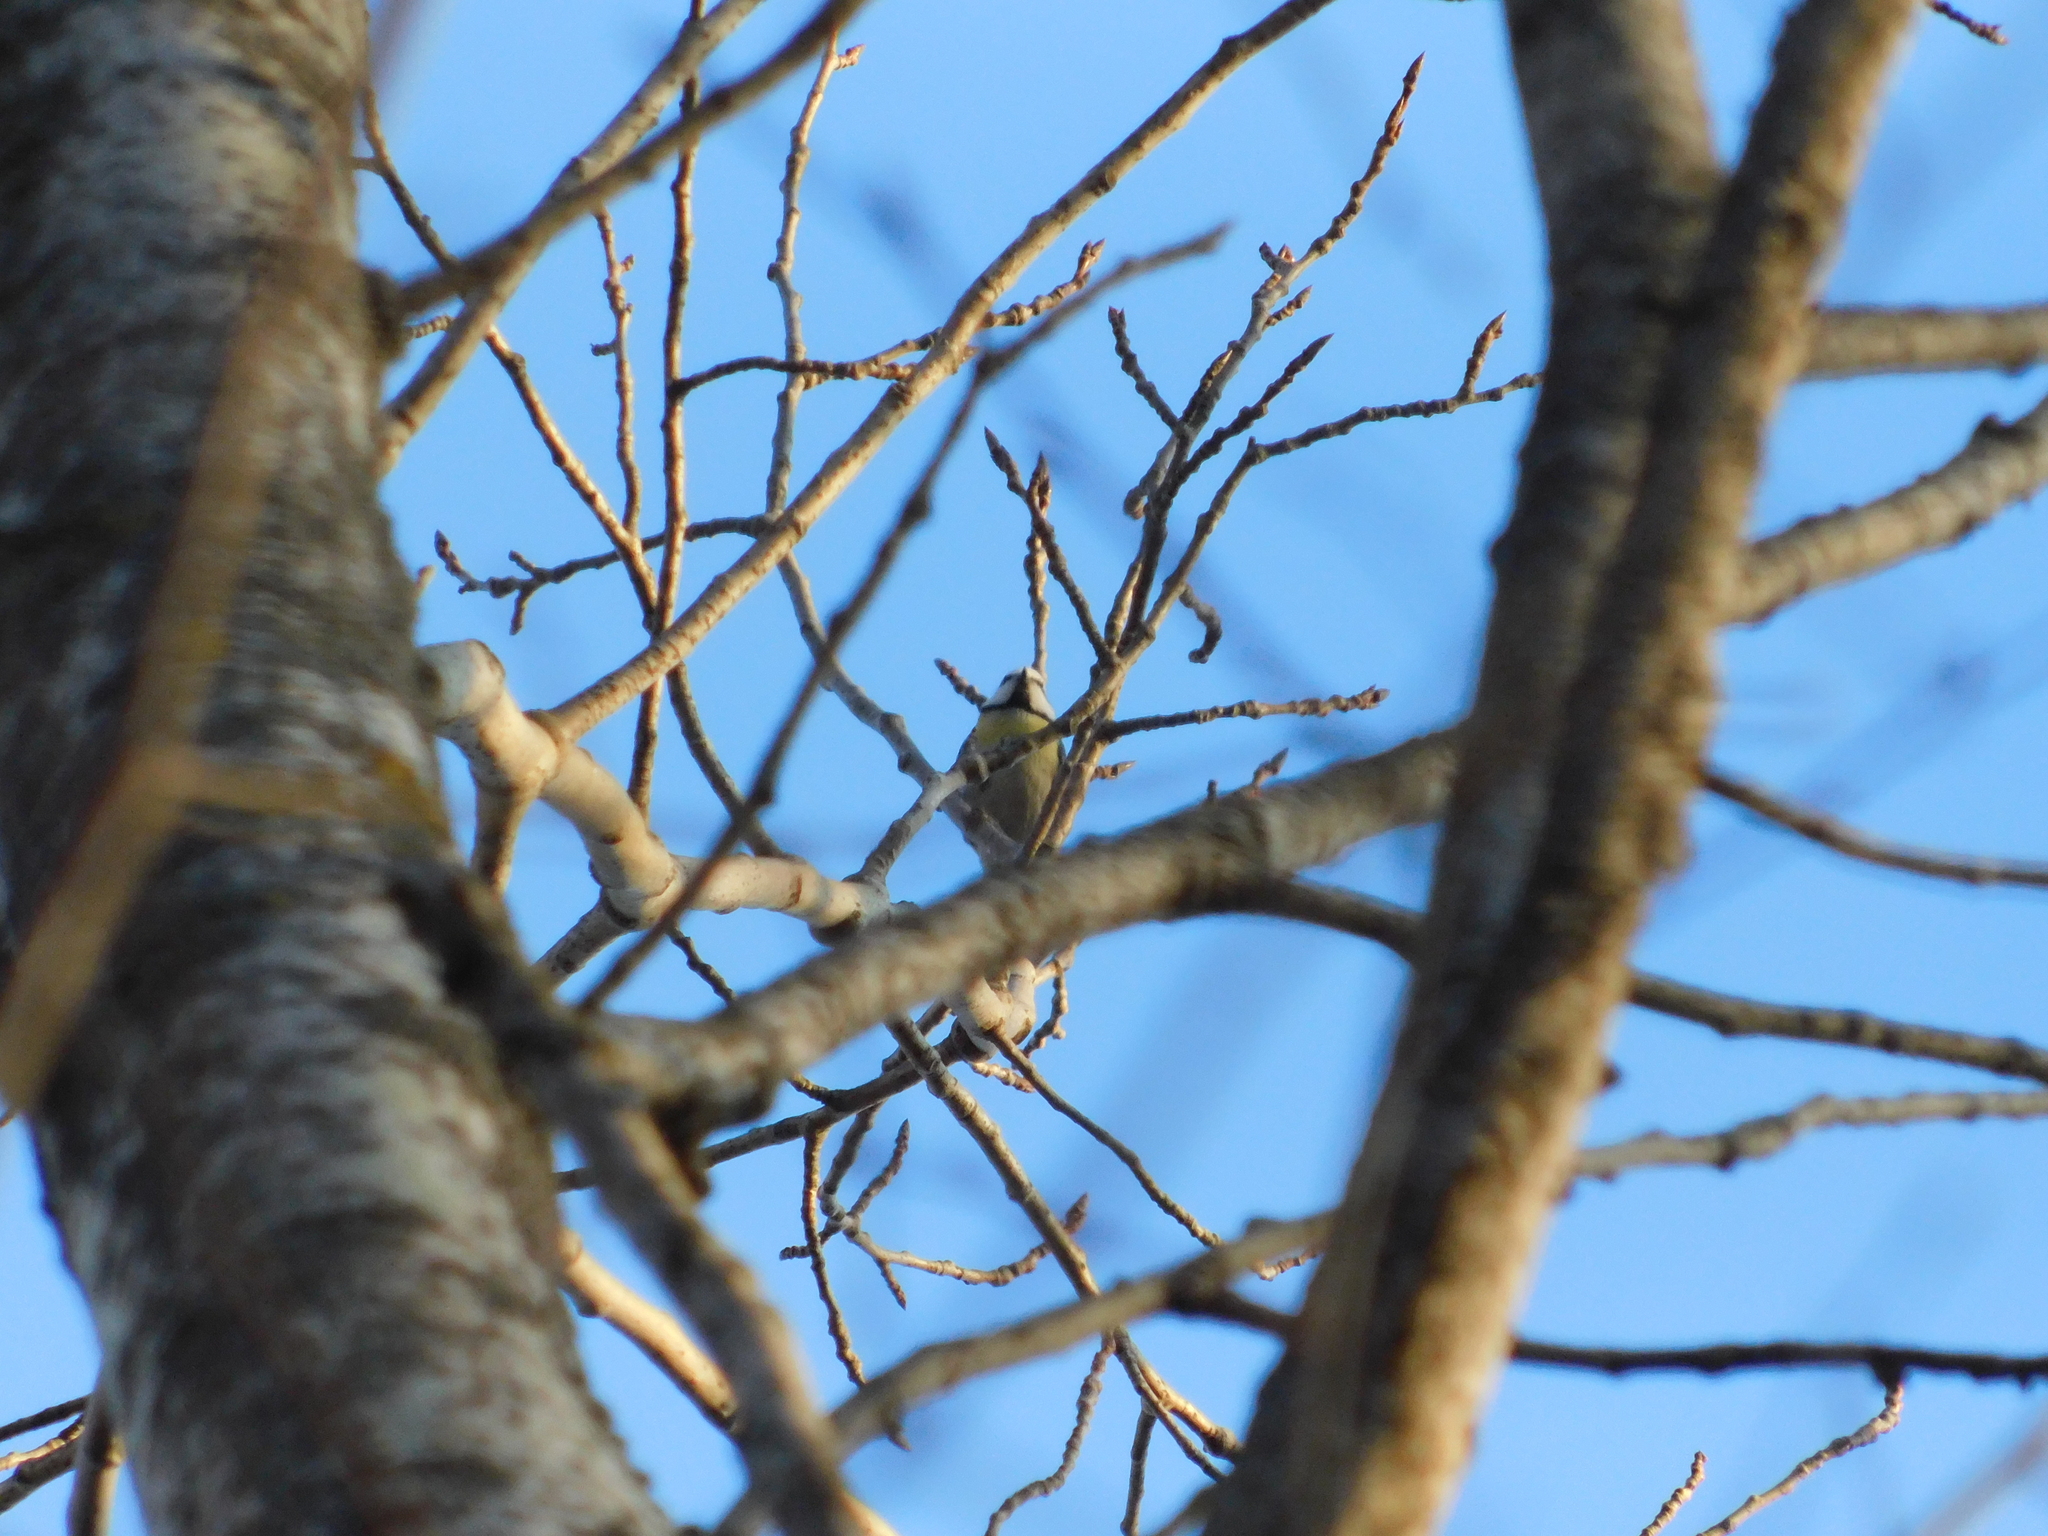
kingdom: Animalia
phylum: Chordata
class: Aves
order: Passeriformes
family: Paridae
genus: Cyanistes
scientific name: Cyanistes caeruleus
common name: Eurasian blue tit
